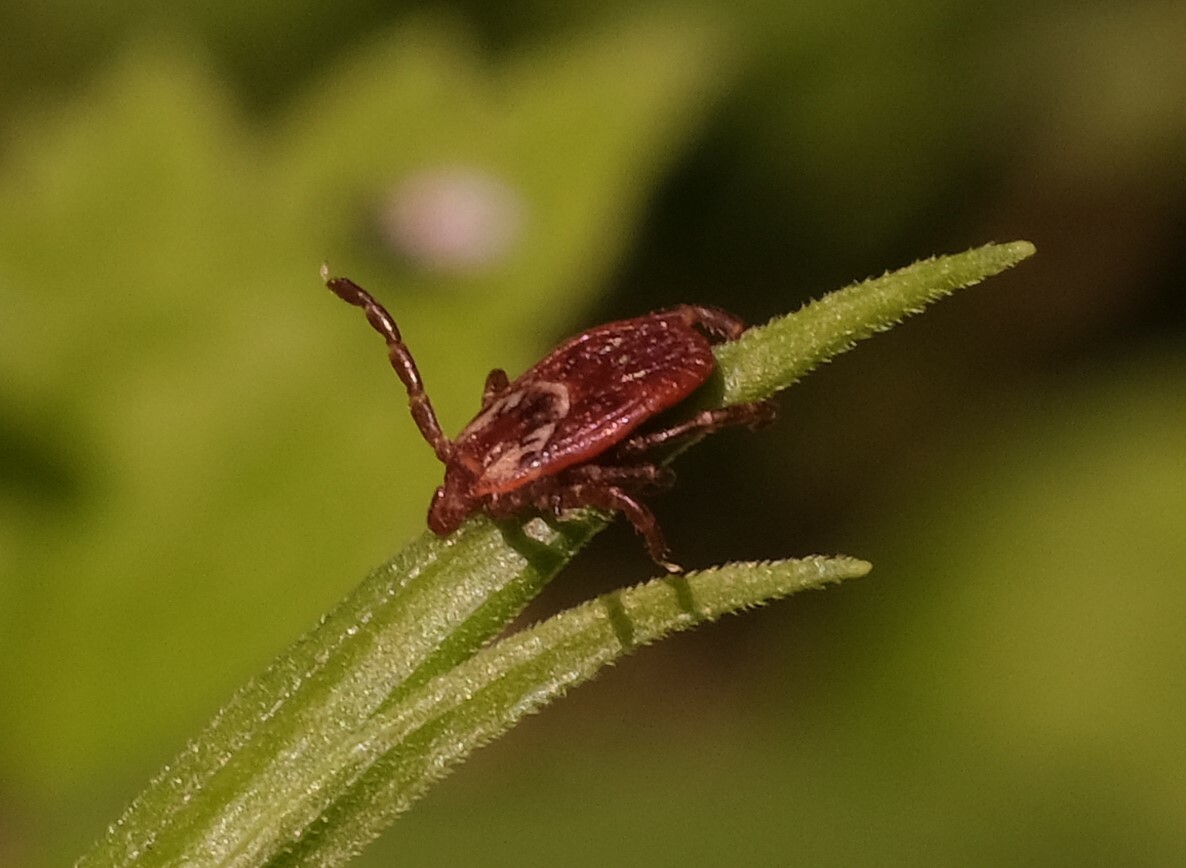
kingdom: Animalia
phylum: Arthropoda
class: Arachnida
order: Ixodida
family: Ixodidae
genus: Dermacentor
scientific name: Dermacentor variabilis
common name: American dog tick
